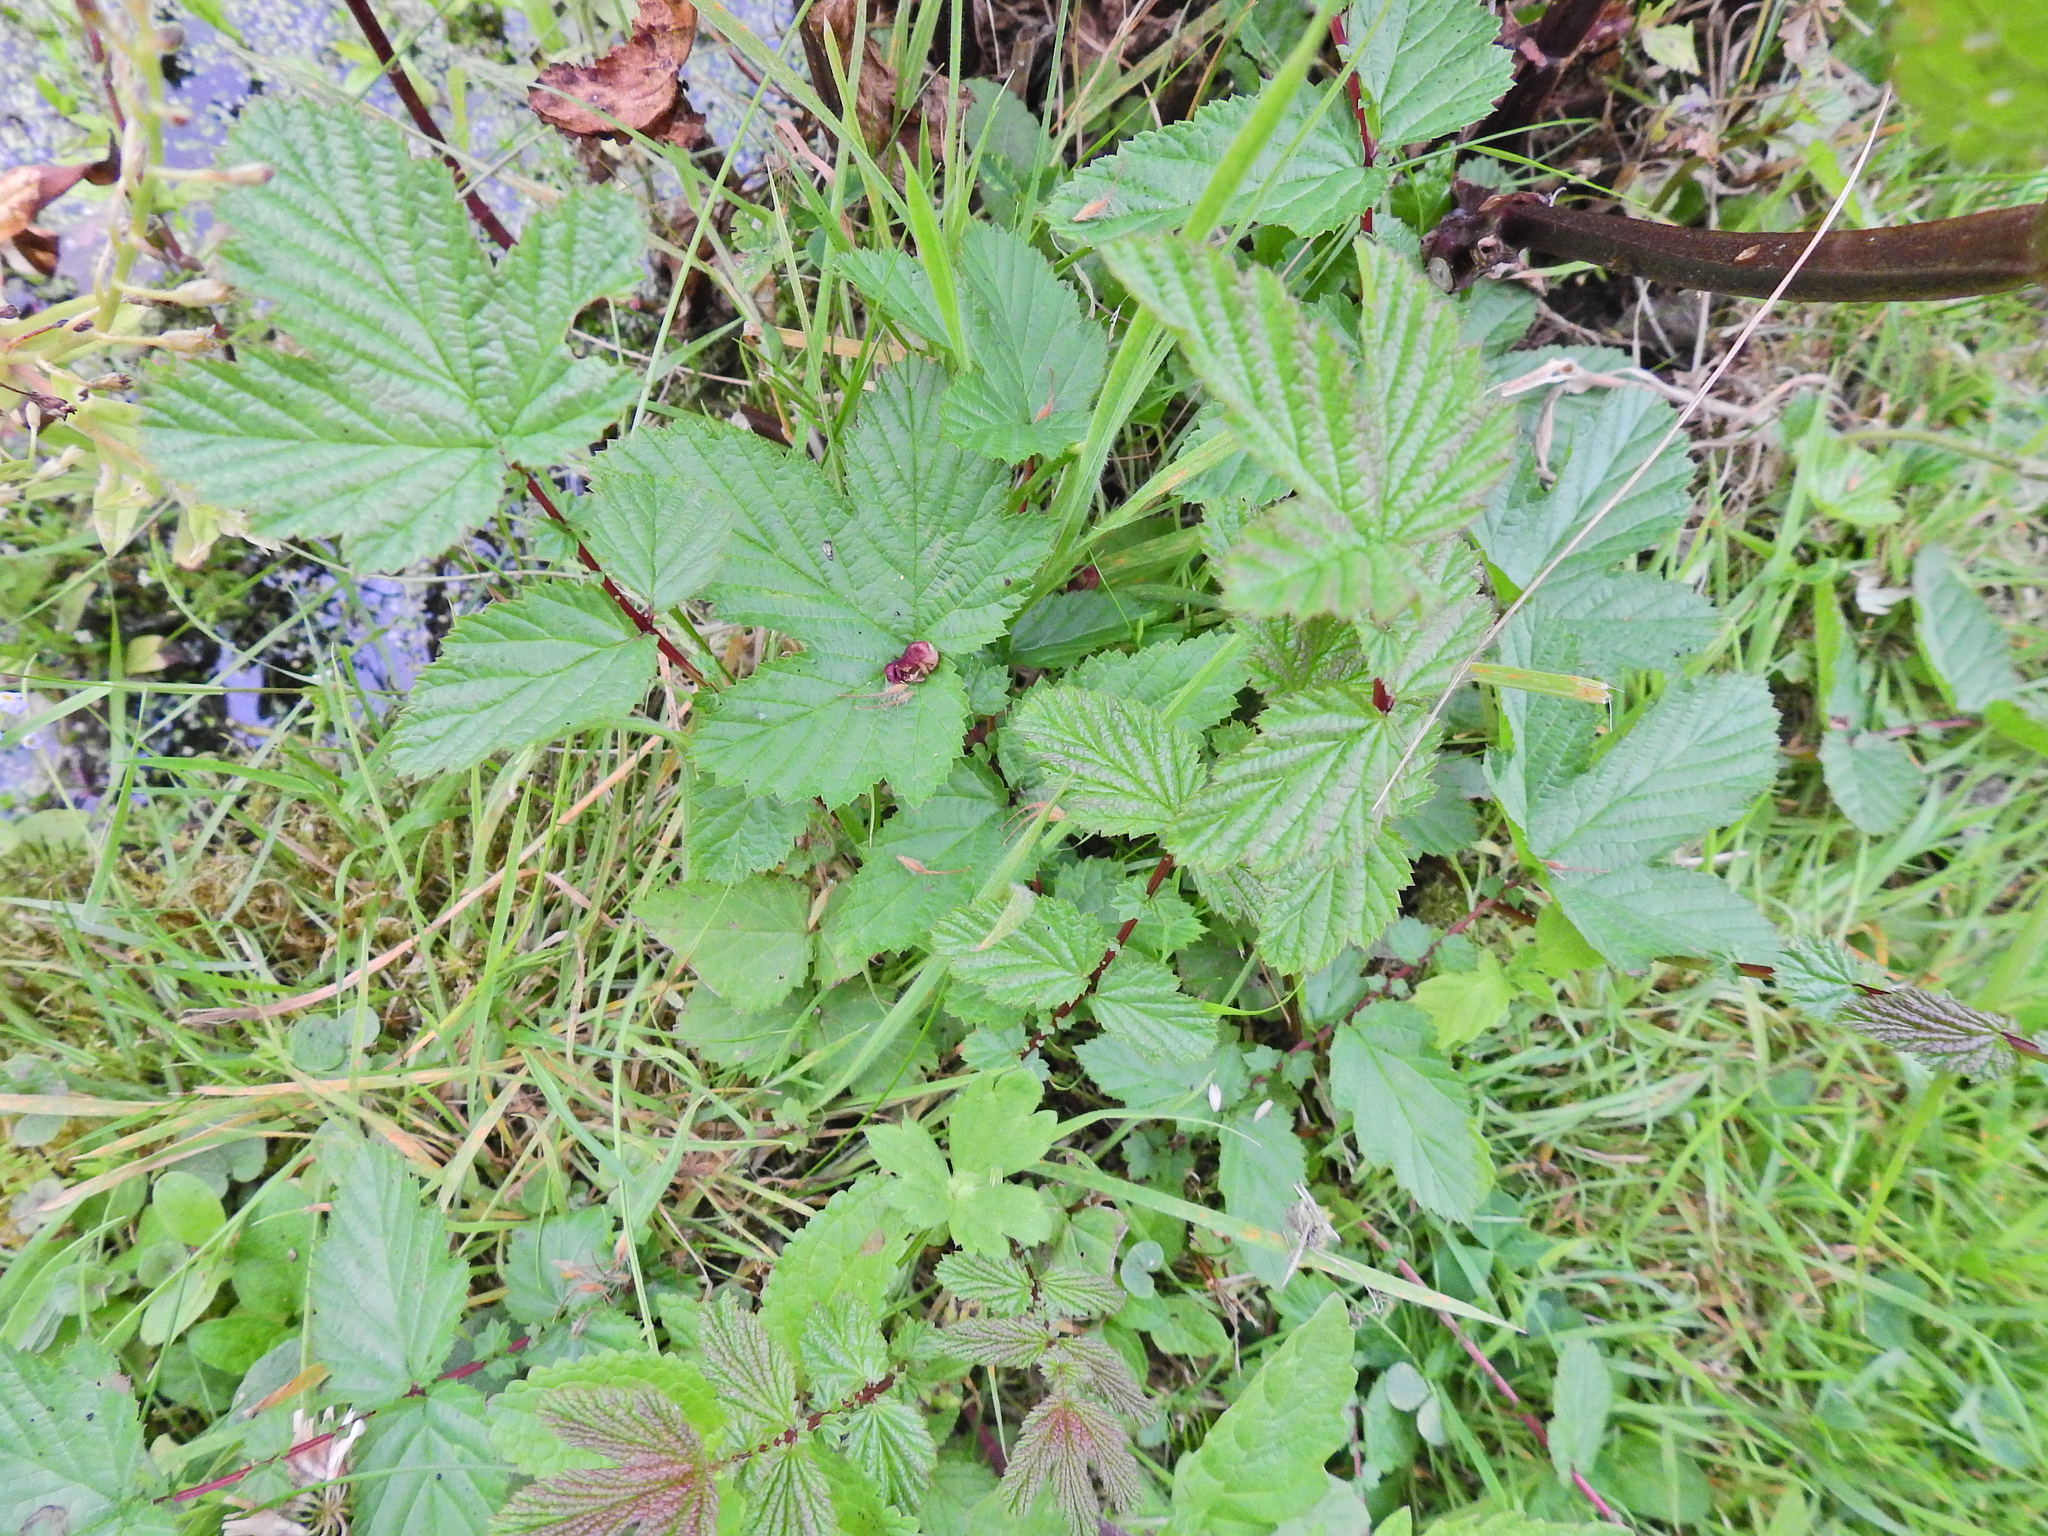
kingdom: Plantae
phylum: Tracheophyta
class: Magnoliopsida
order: Rosales
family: Rosaceae
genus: Filipendula
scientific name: Filipendula ulmaria
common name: Meadowsweet
